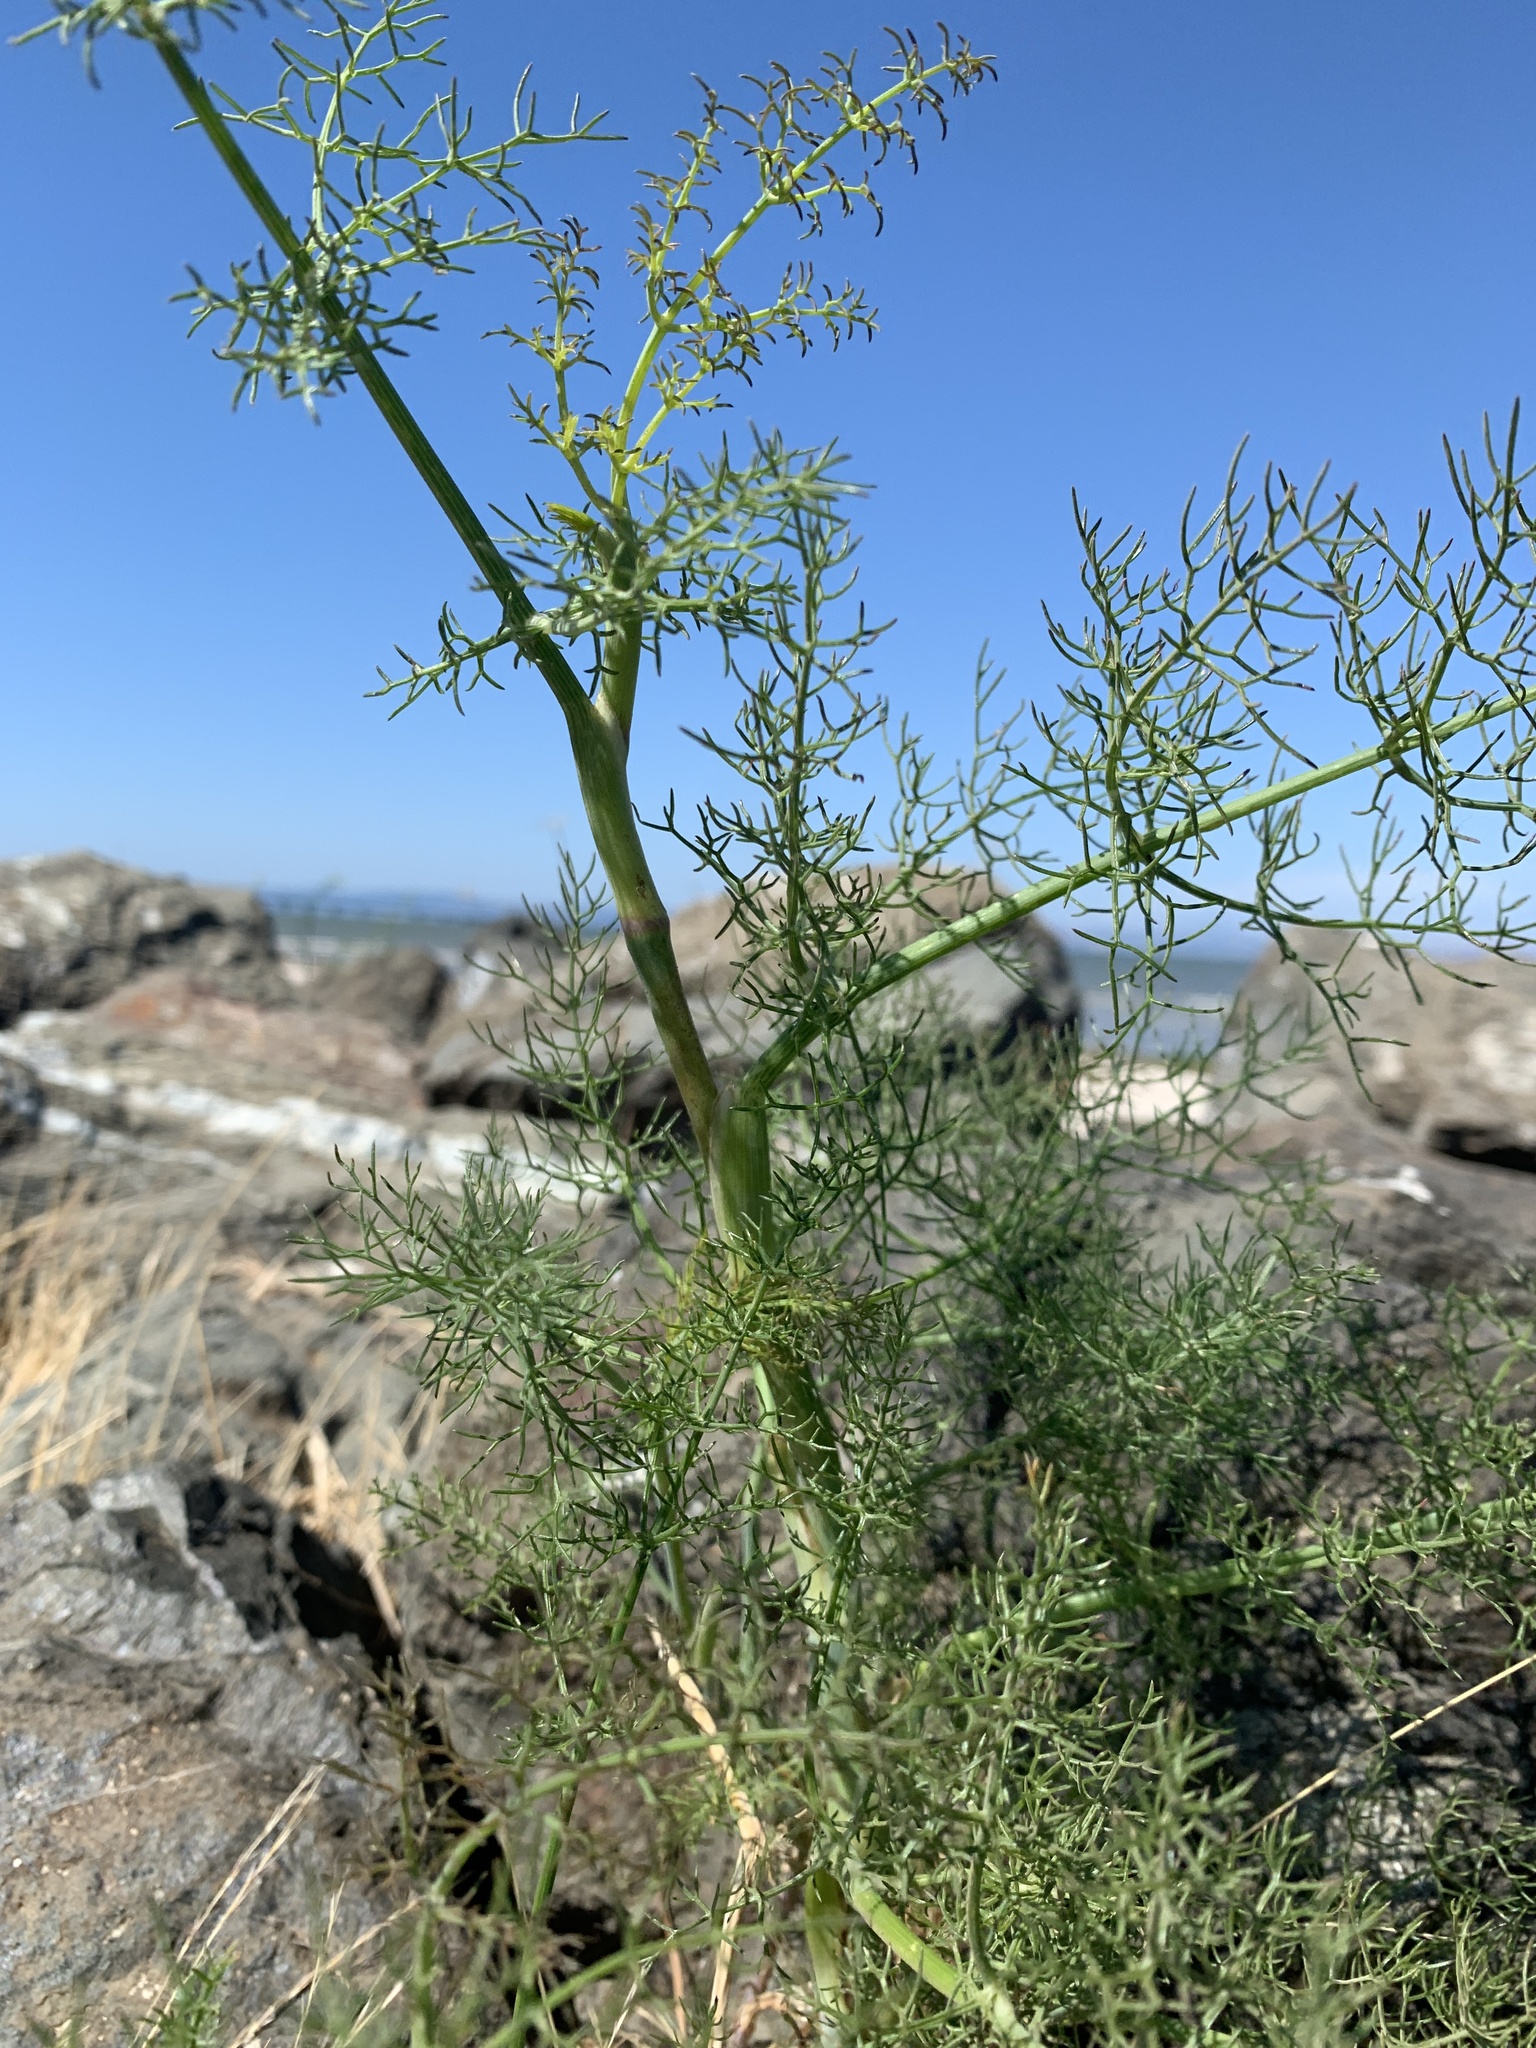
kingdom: Plantae
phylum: Tracheophyta
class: Magnoliopsida
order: Apiales
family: Apiaceae
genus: Foeniculum
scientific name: Foeniculum vulgare
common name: Fennel
